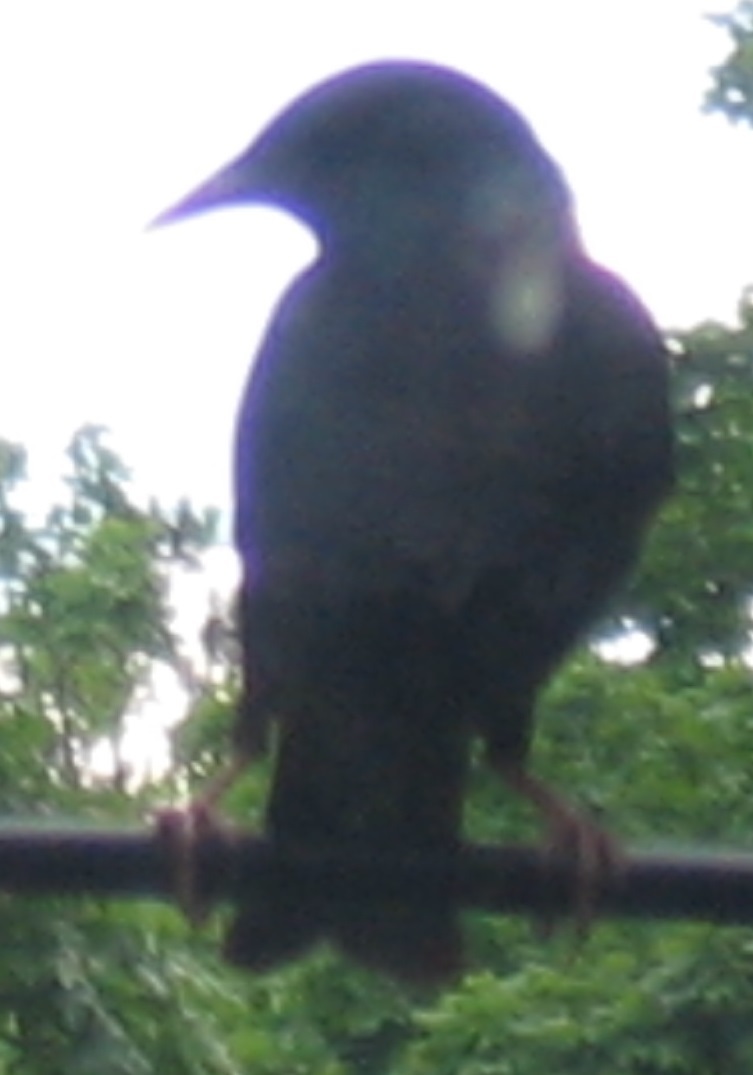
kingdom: Animalia
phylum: Chordata
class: Aves
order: Passeriformes
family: Sturnidae
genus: Sturnus
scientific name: Sturnus vulgaris
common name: Common starling
